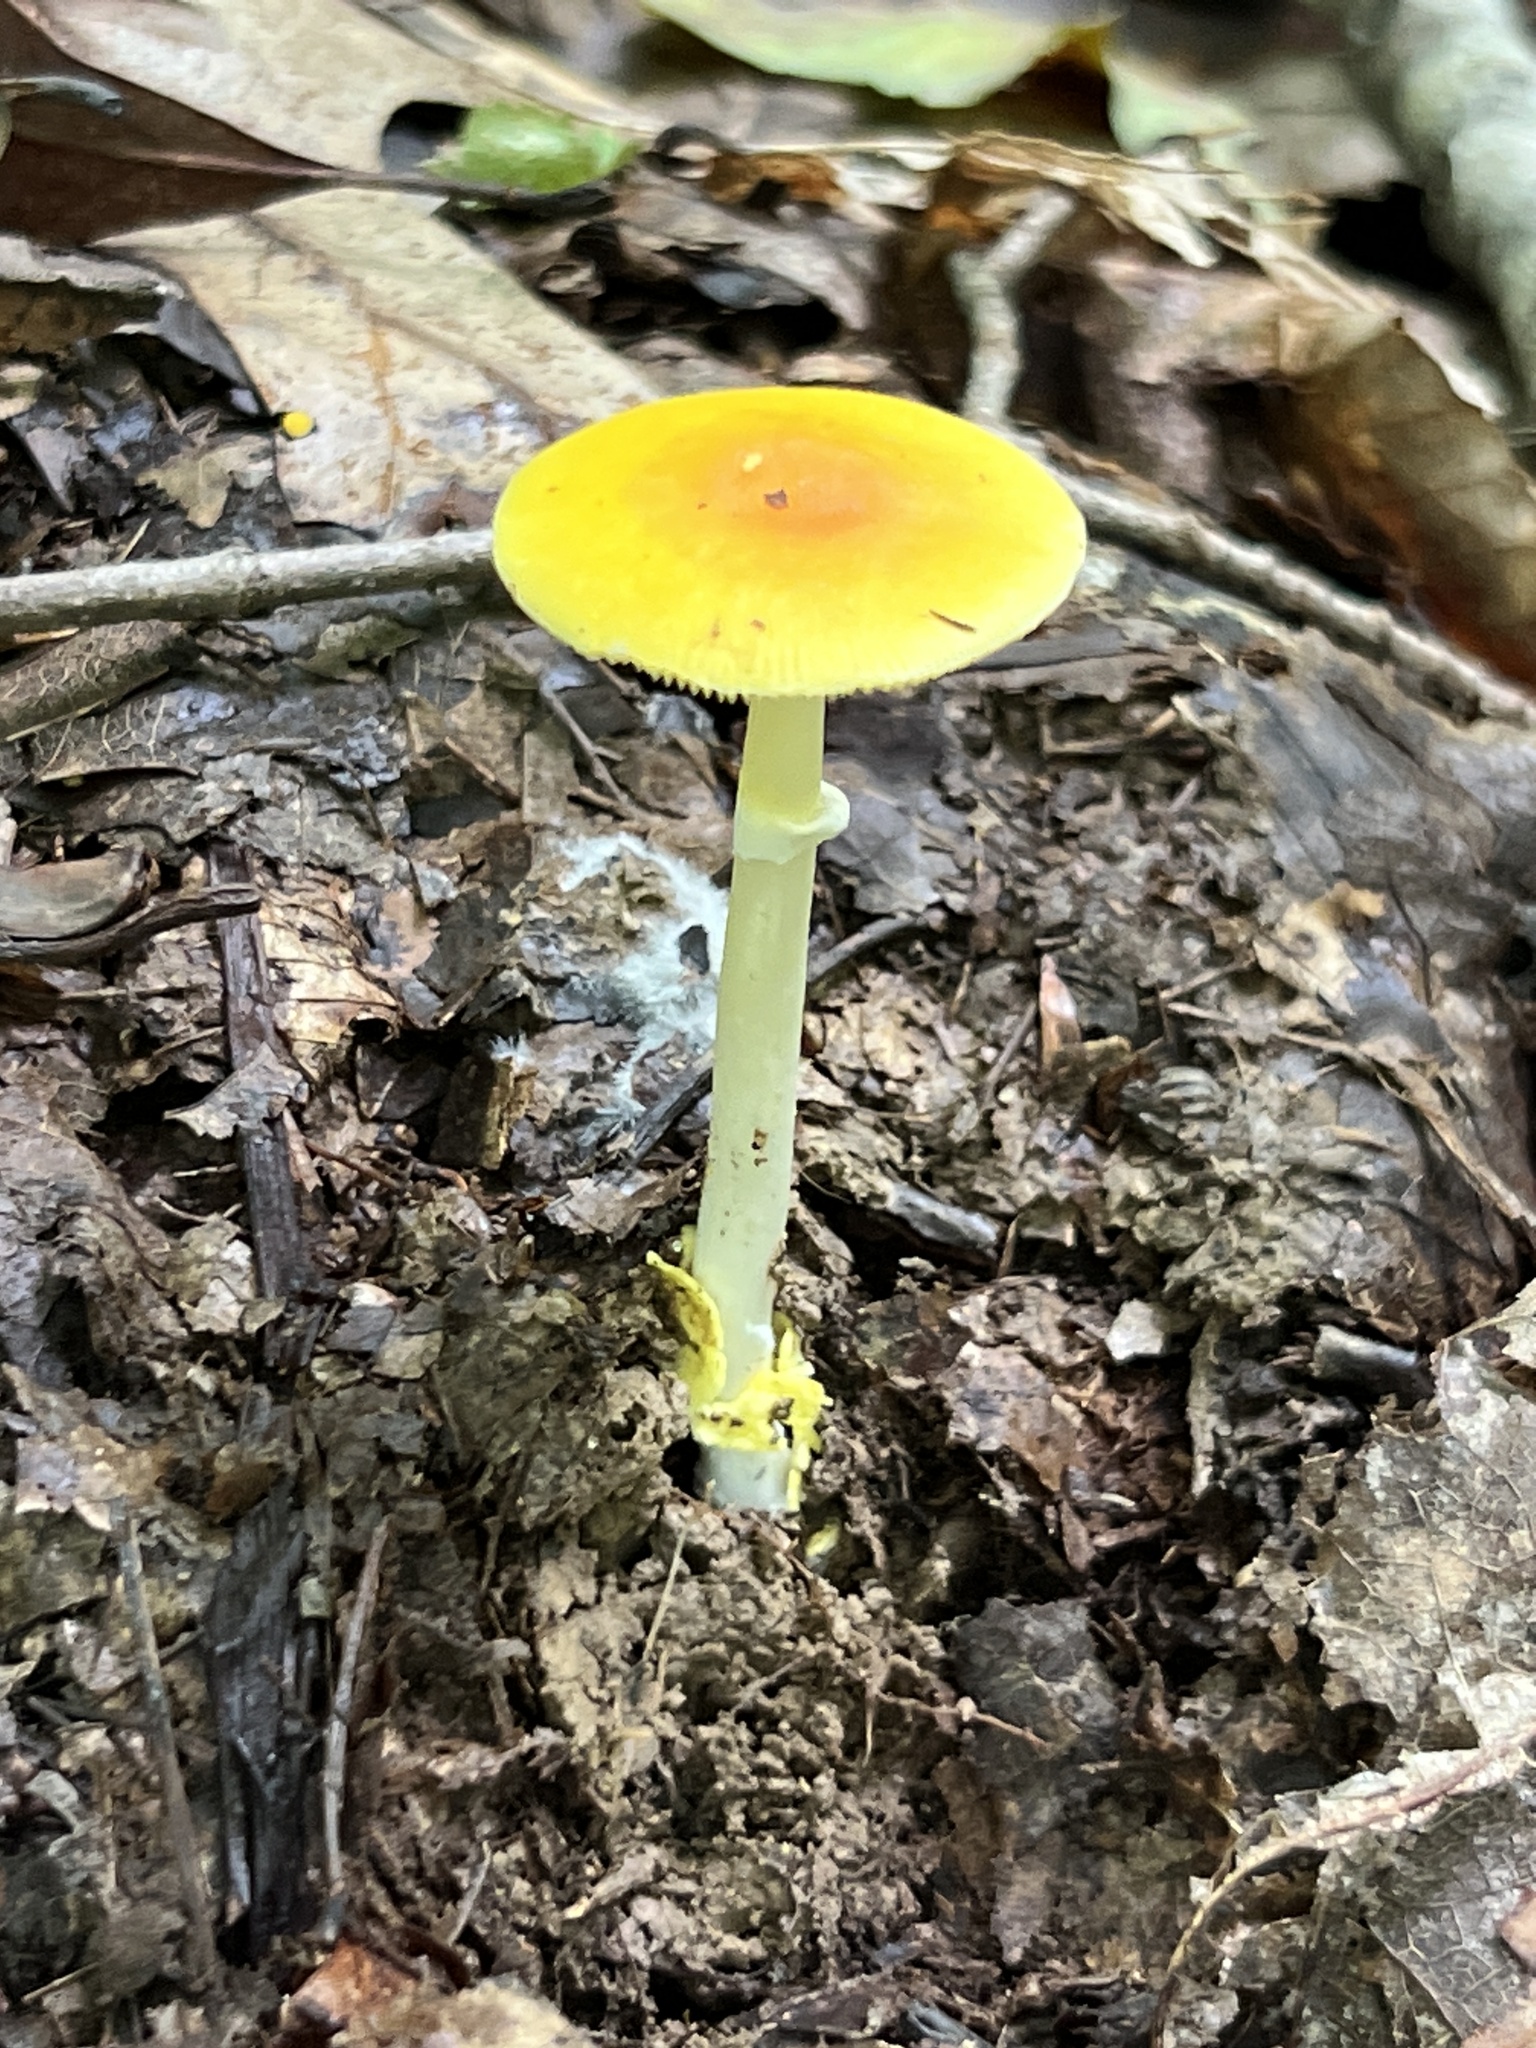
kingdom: Fungi
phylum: Basidiomycota
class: Agaricomycetes
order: Agaricales
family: Amanitaceae
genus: Amanita
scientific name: Amanita flavoconia
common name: Yellow patches
